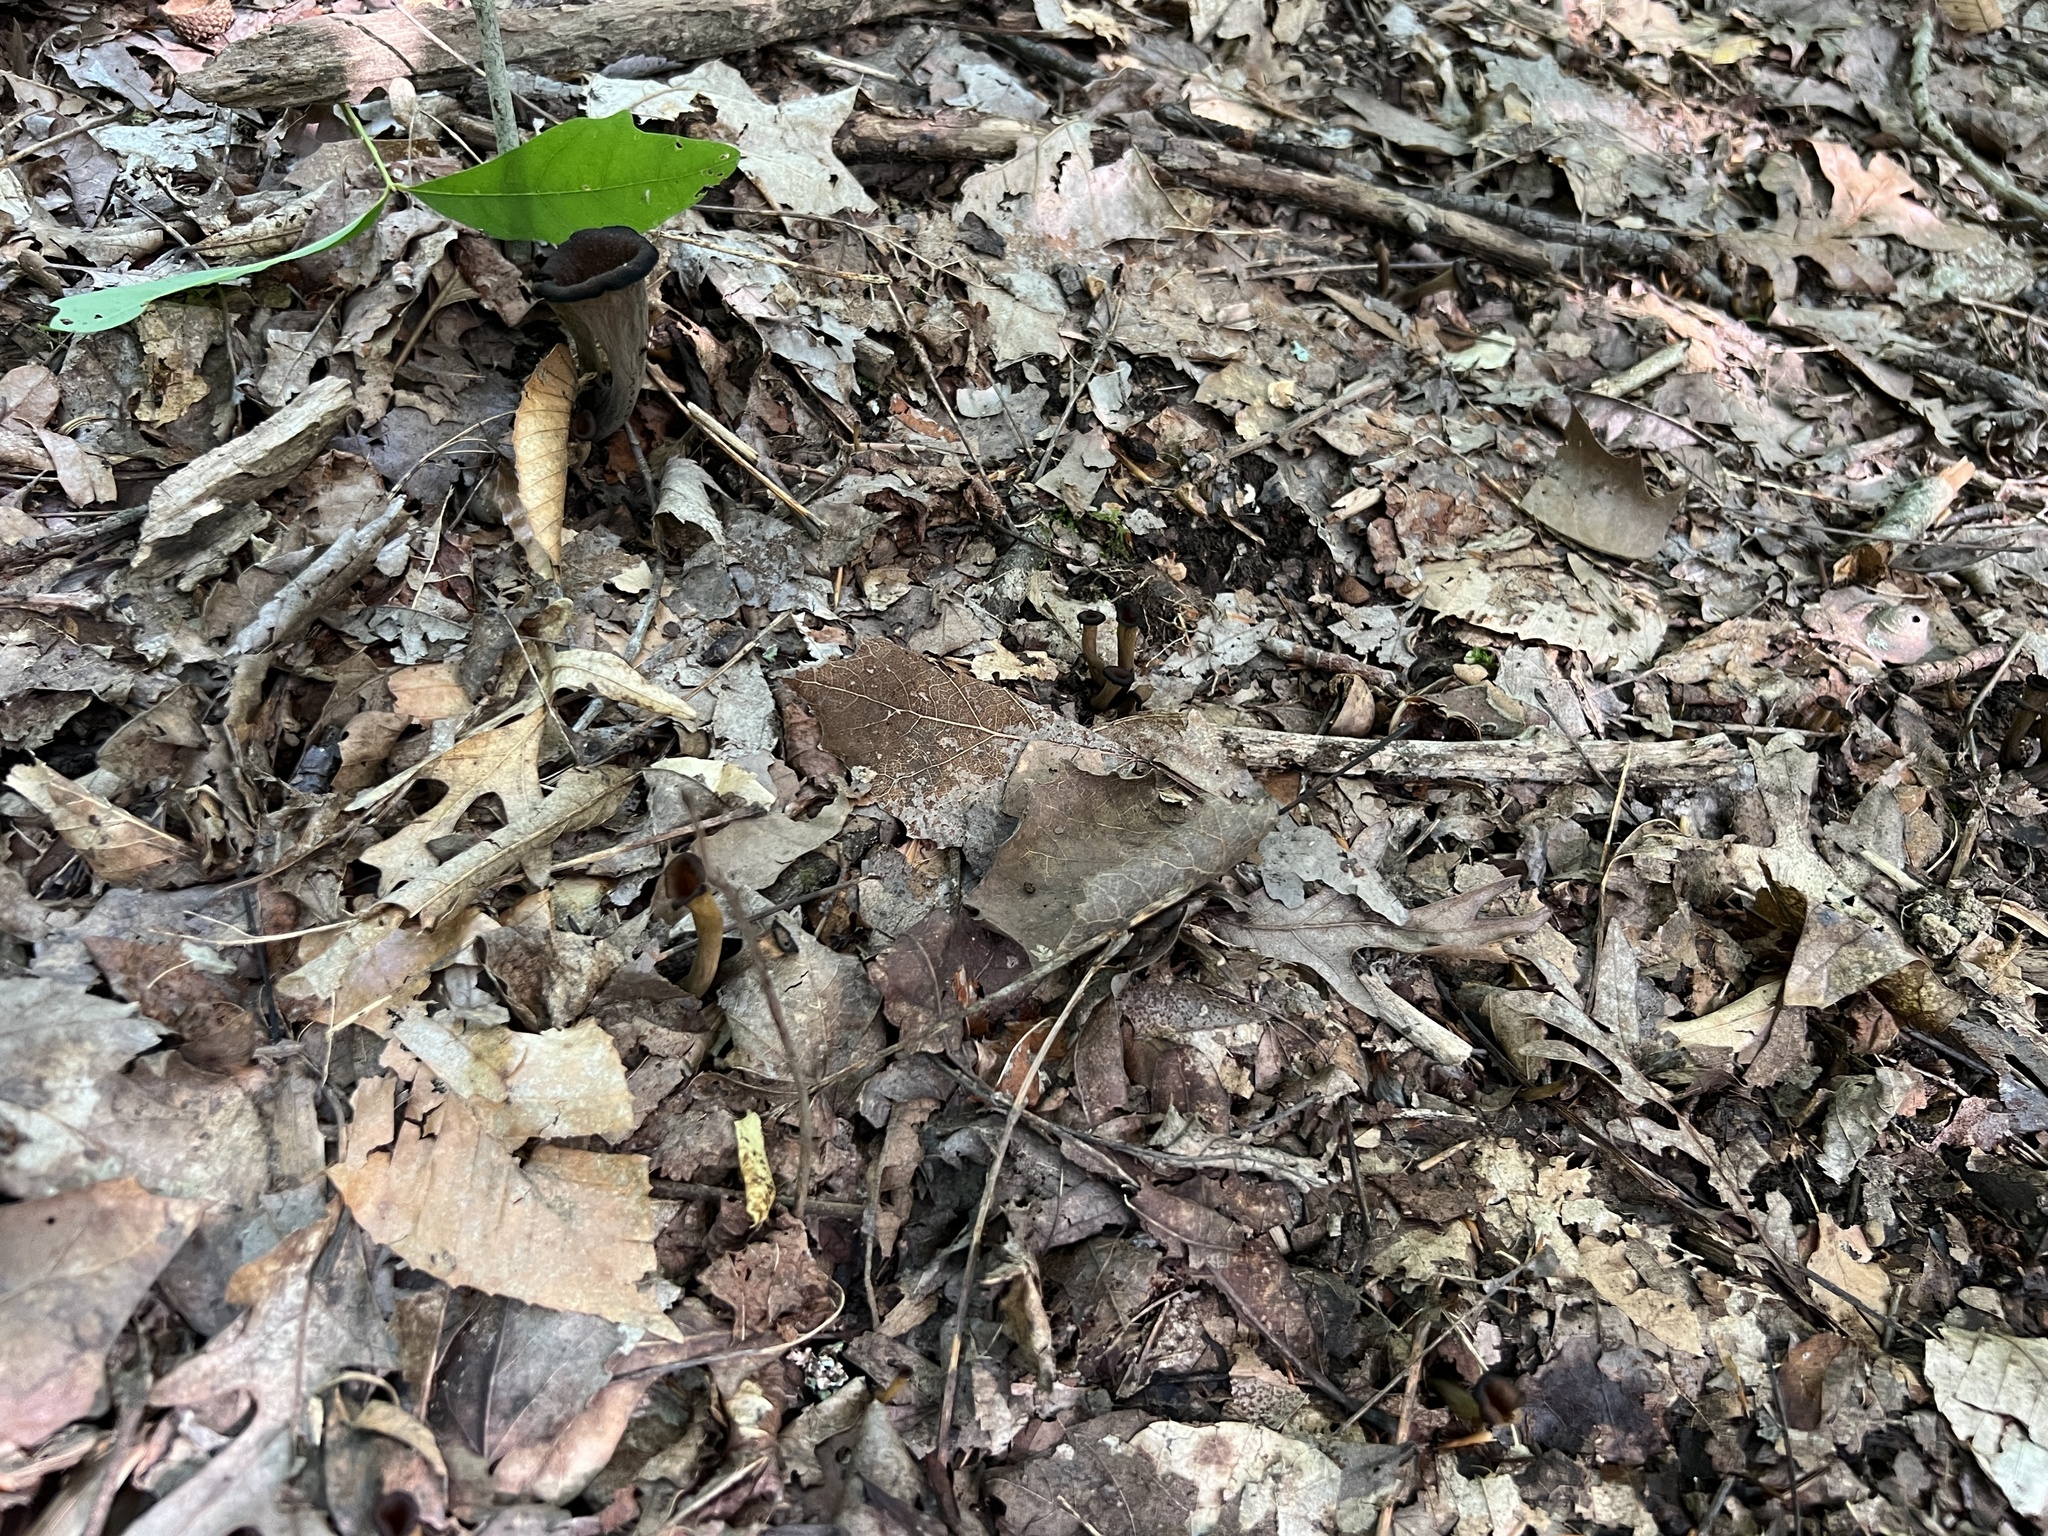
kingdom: Fungi
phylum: Basidiomycota
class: Agaricomycetes
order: Cantharellales
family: Hydnaceae
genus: Craterellus
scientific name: Craterellus cornucopioides
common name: Horn of plenty
